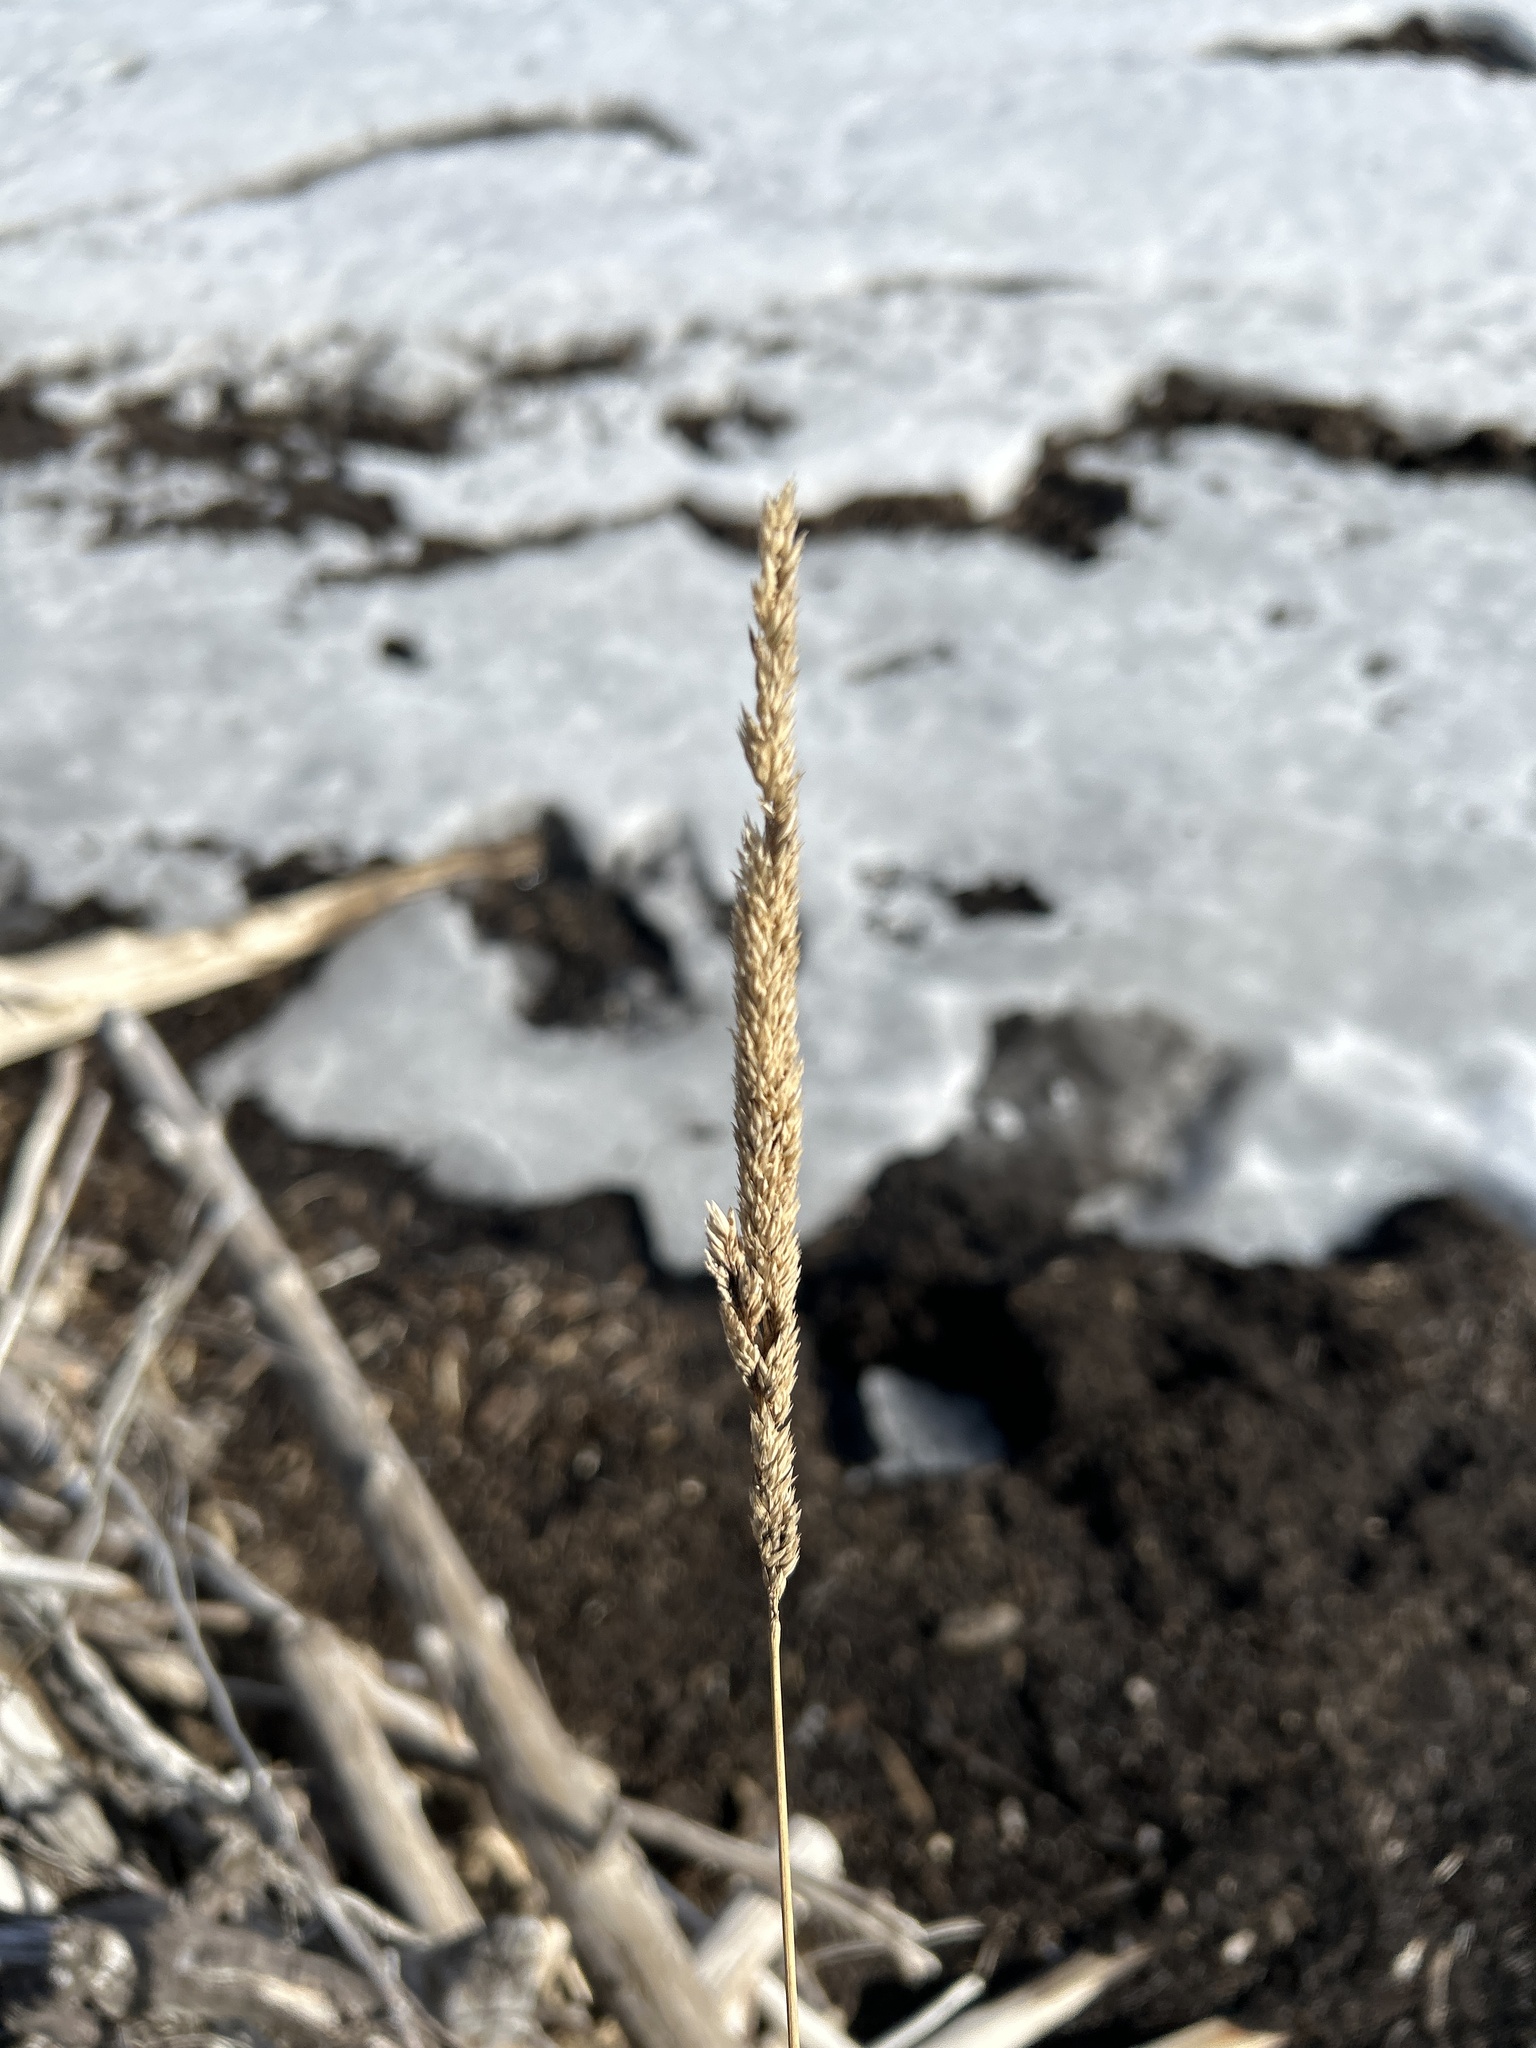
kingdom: Plantae
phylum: Tracheophyta
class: Liliopsida
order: Poales
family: Poaceae
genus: Phalaris
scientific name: Phalaris arundinacea
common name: Reed canary-grass
